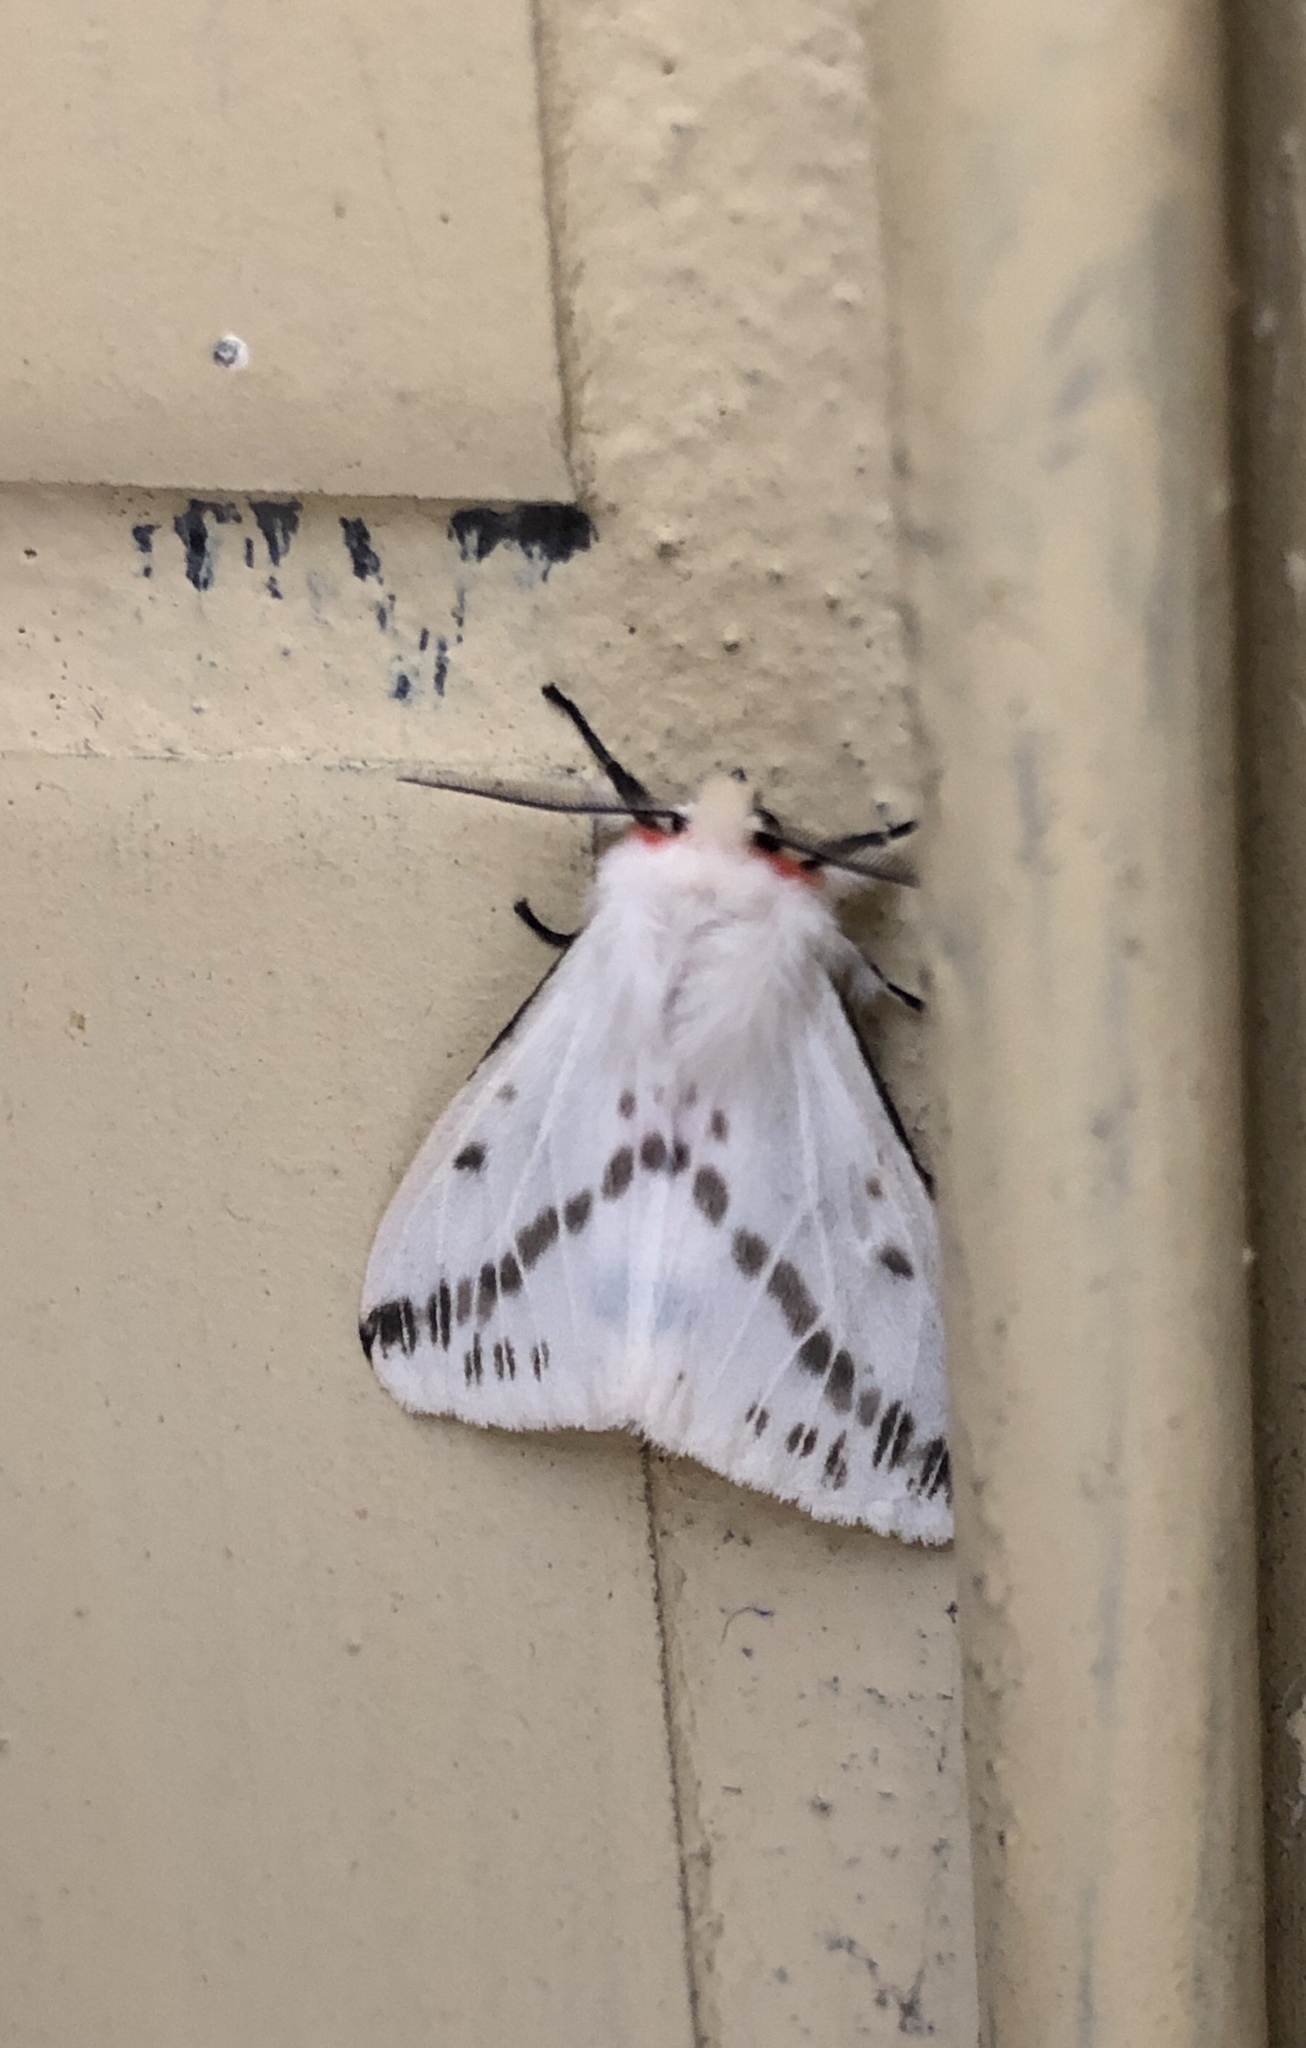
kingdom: Animalia
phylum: Arthropoda
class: Insecta
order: Lepidoptera
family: Erebidae
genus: Lemyra
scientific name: Lemyra rhodophilodes
